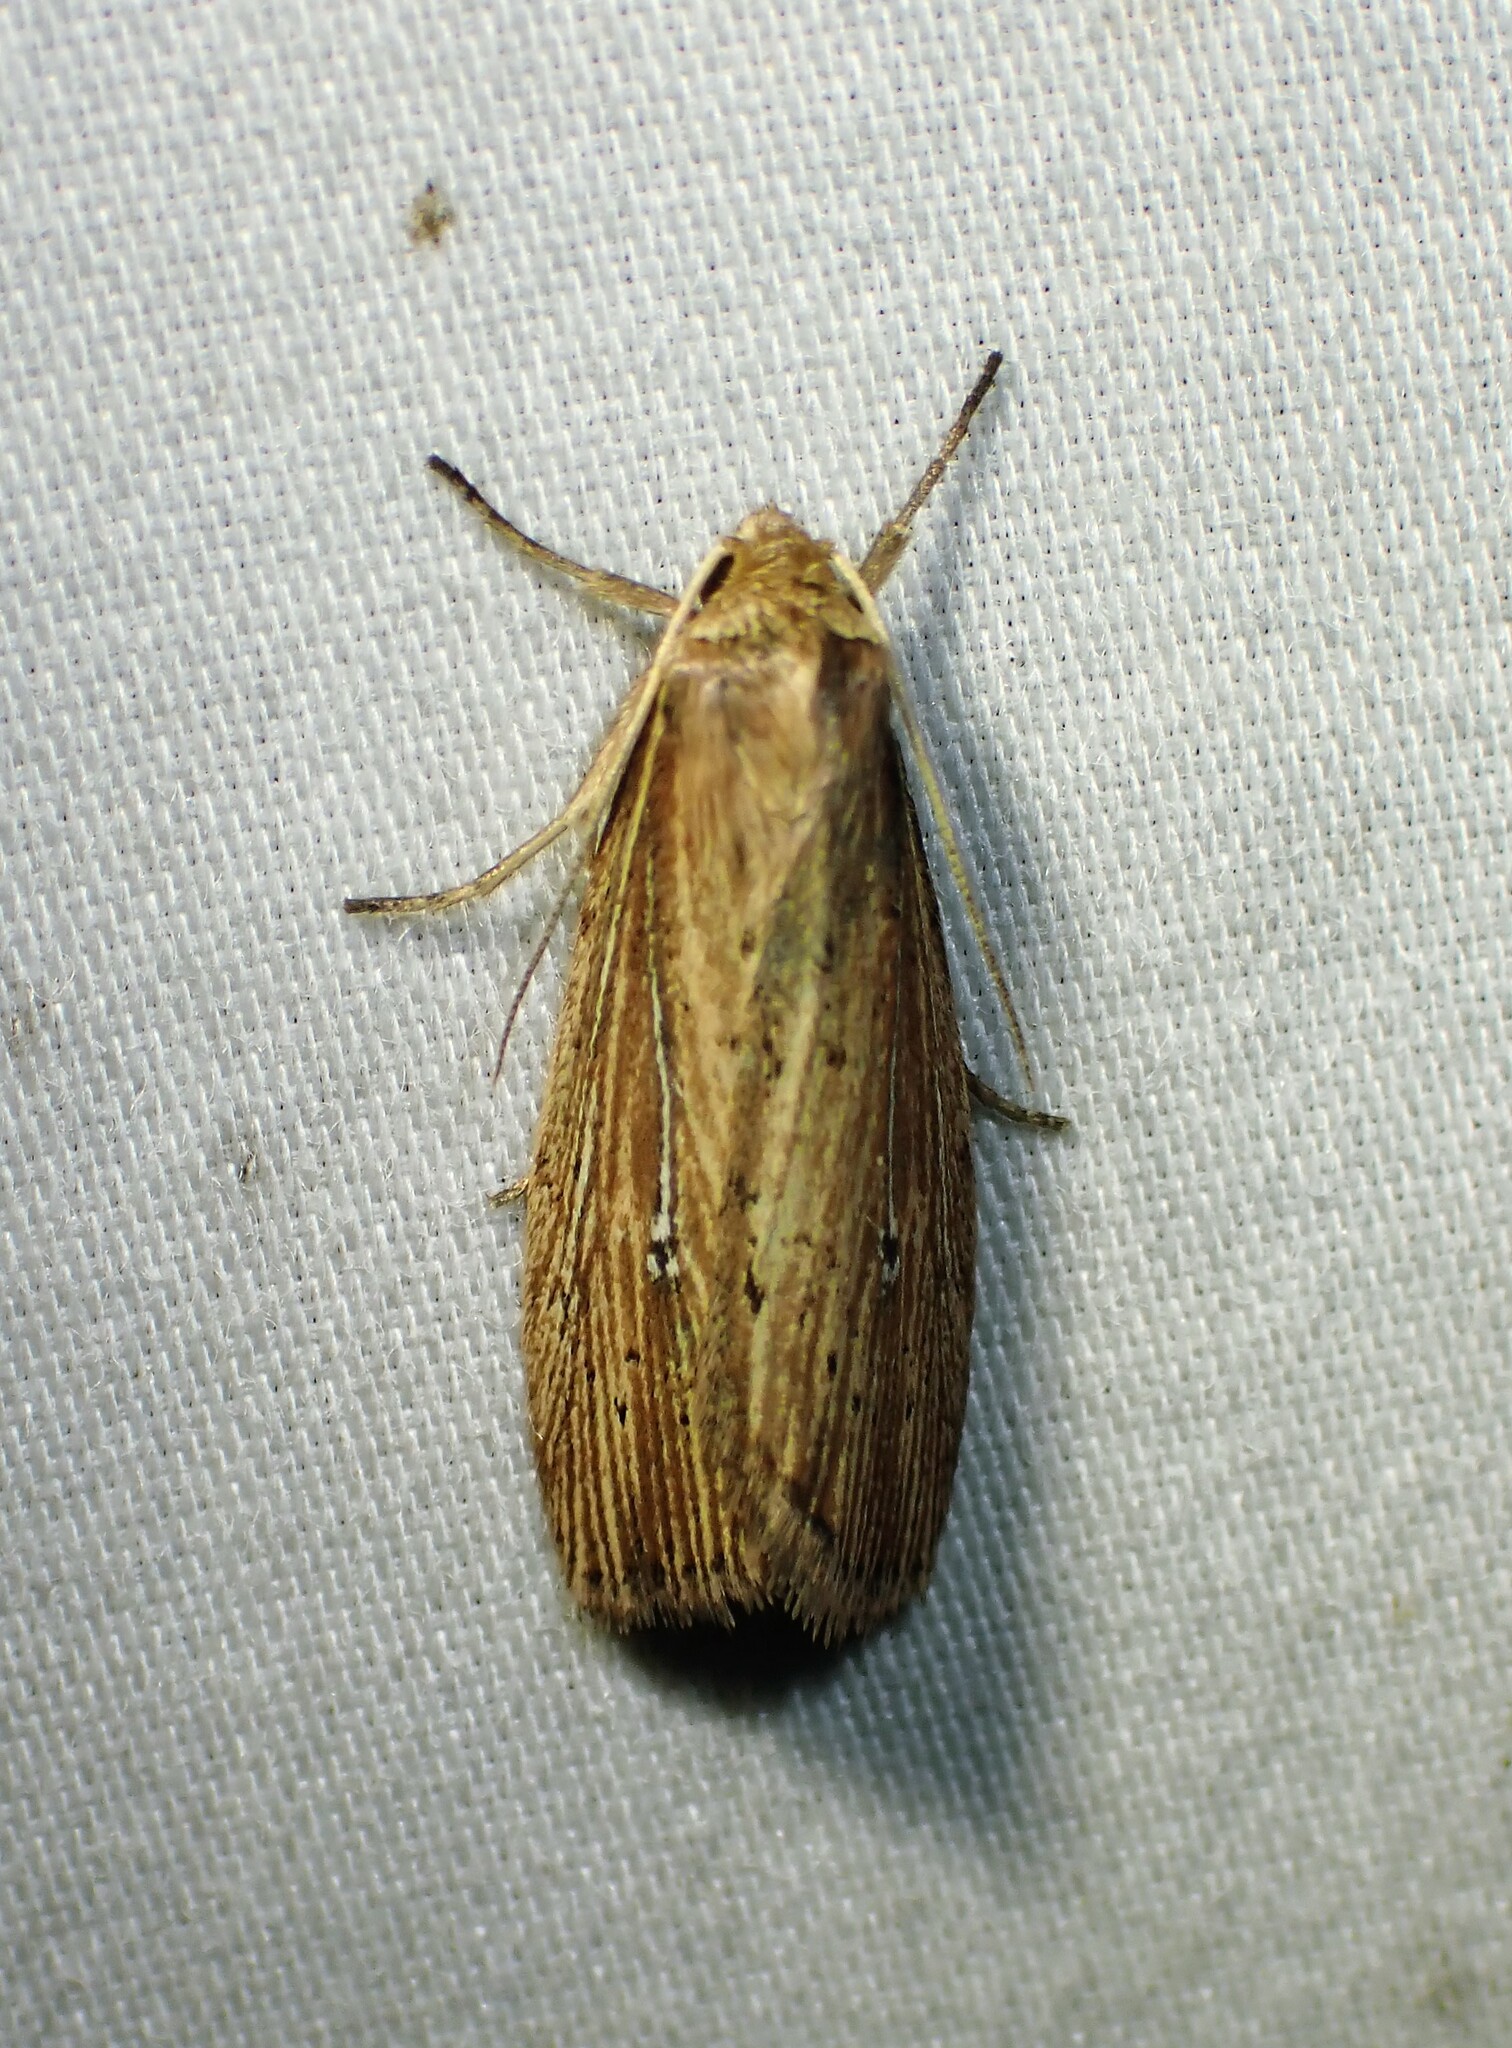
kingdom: Animalia
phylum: Arthropoda
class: Insecta
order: Lepidoptera
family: Noctuidae
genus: Photedes
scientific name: Photedes defecta
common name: Narrow-winged borer moth
